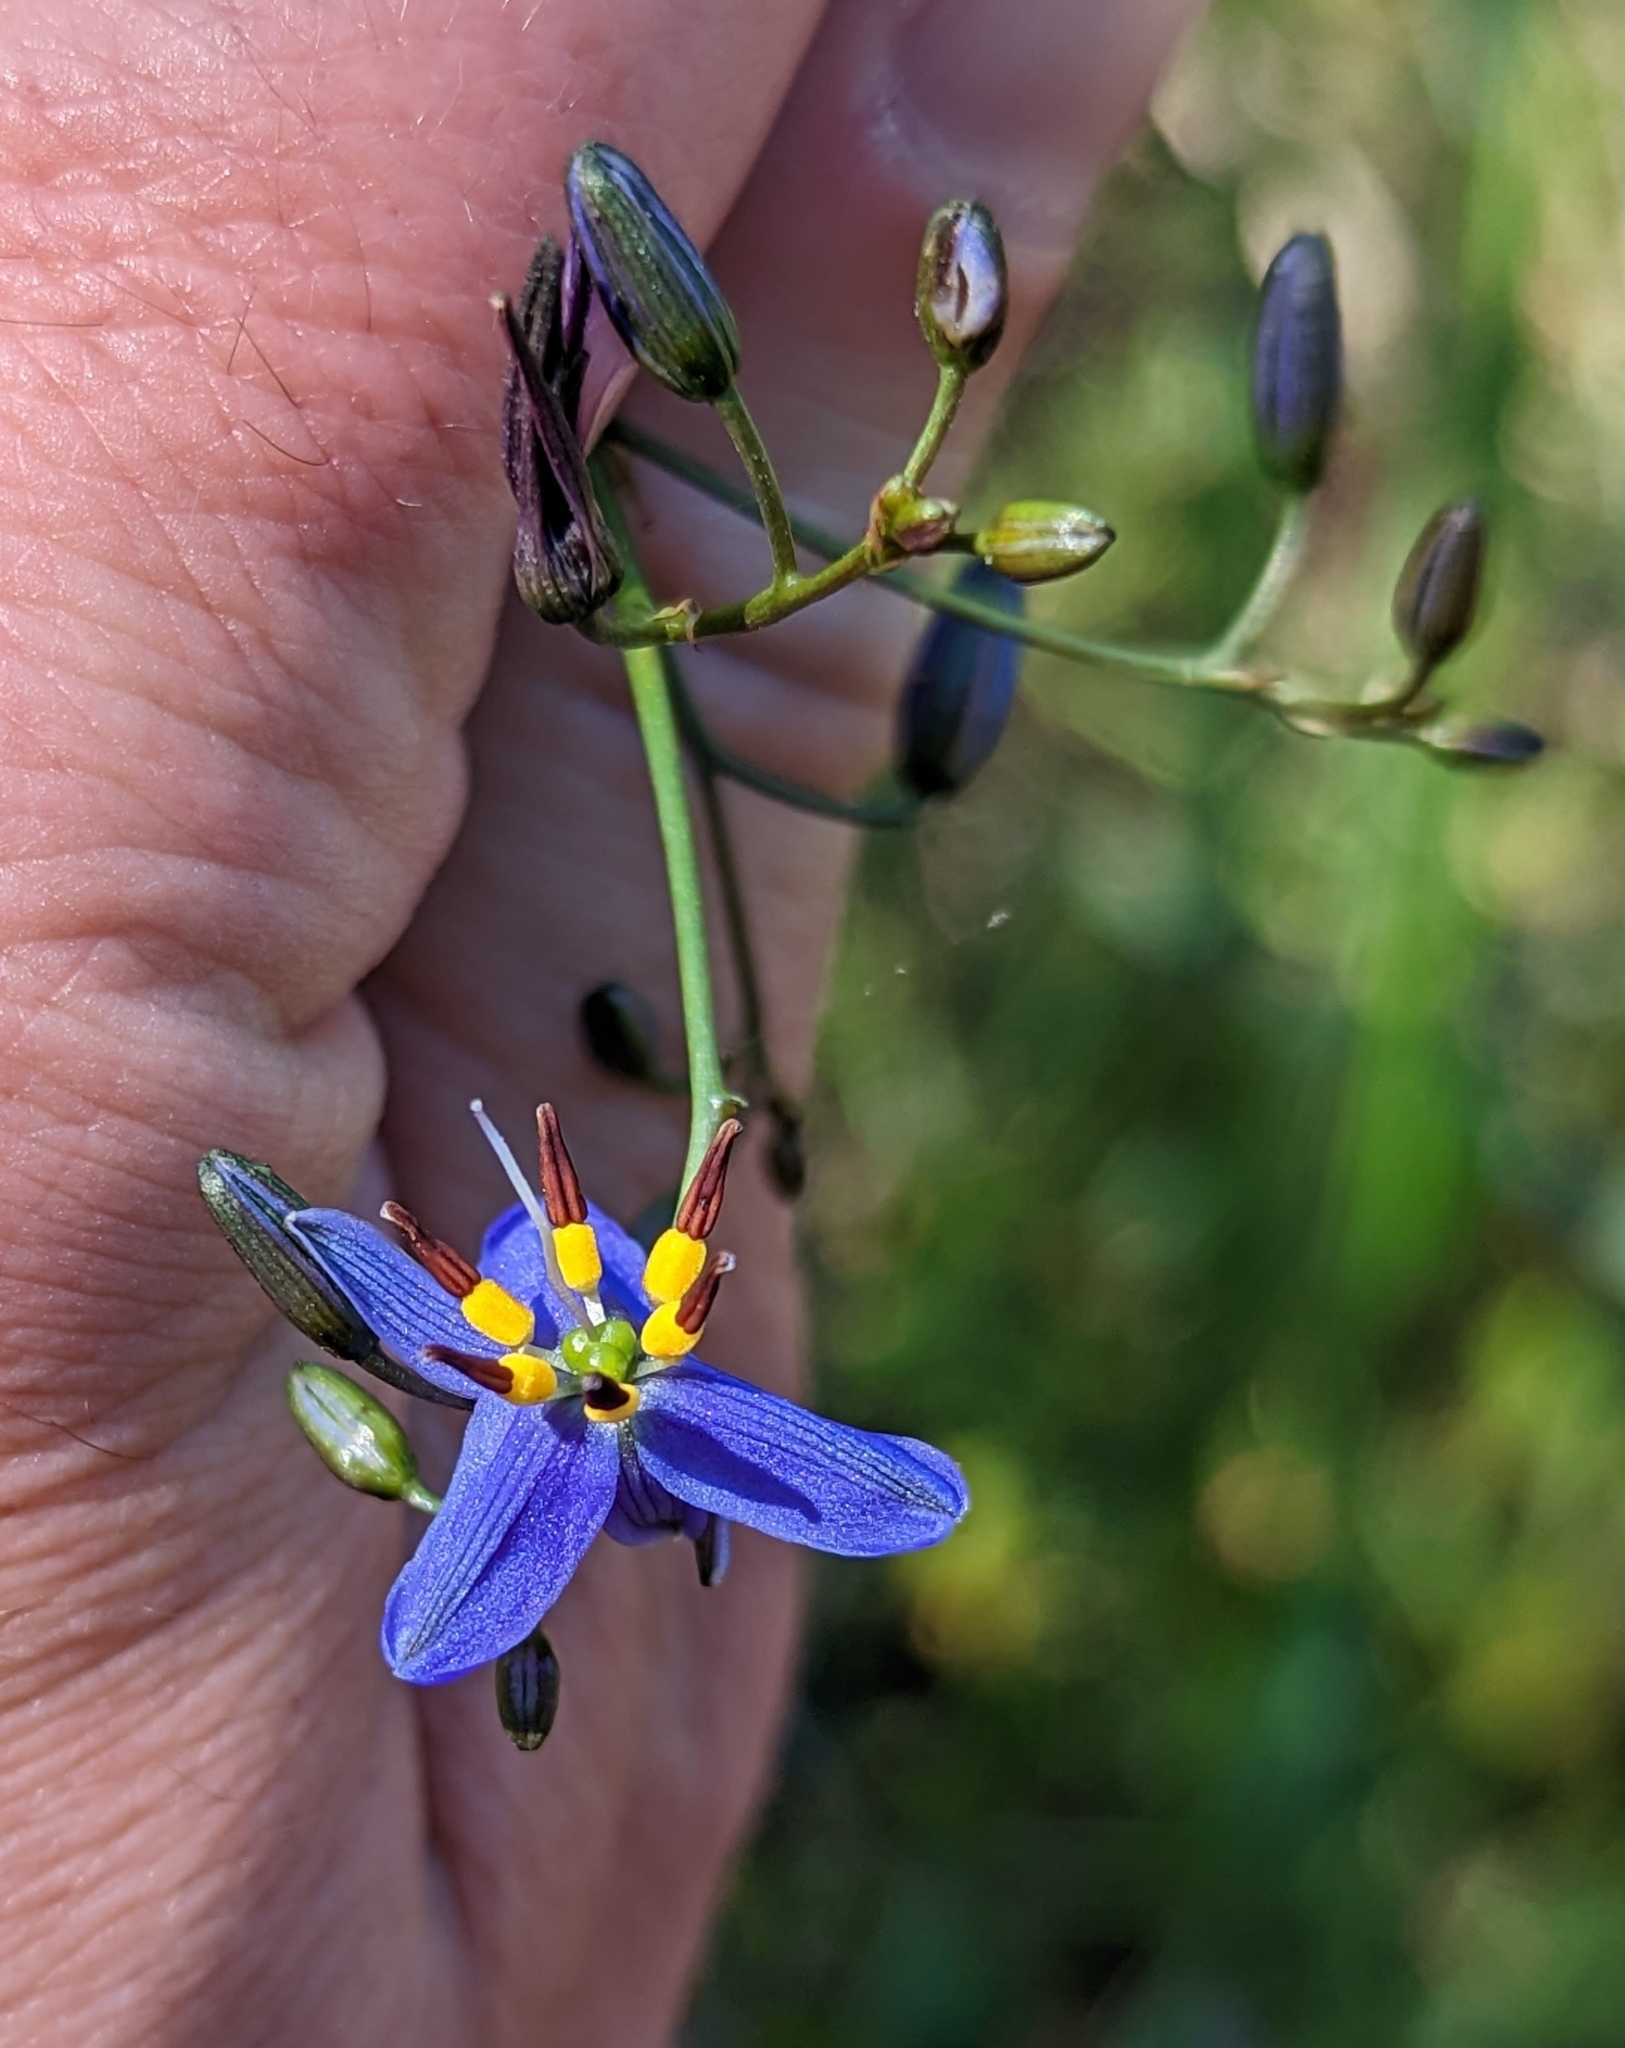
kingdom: Plantae
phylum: Tracheophyta
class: Liliopsida
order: Asparagales
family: Asphodelaceae
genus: Dianella
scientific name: Dianella revoluta
